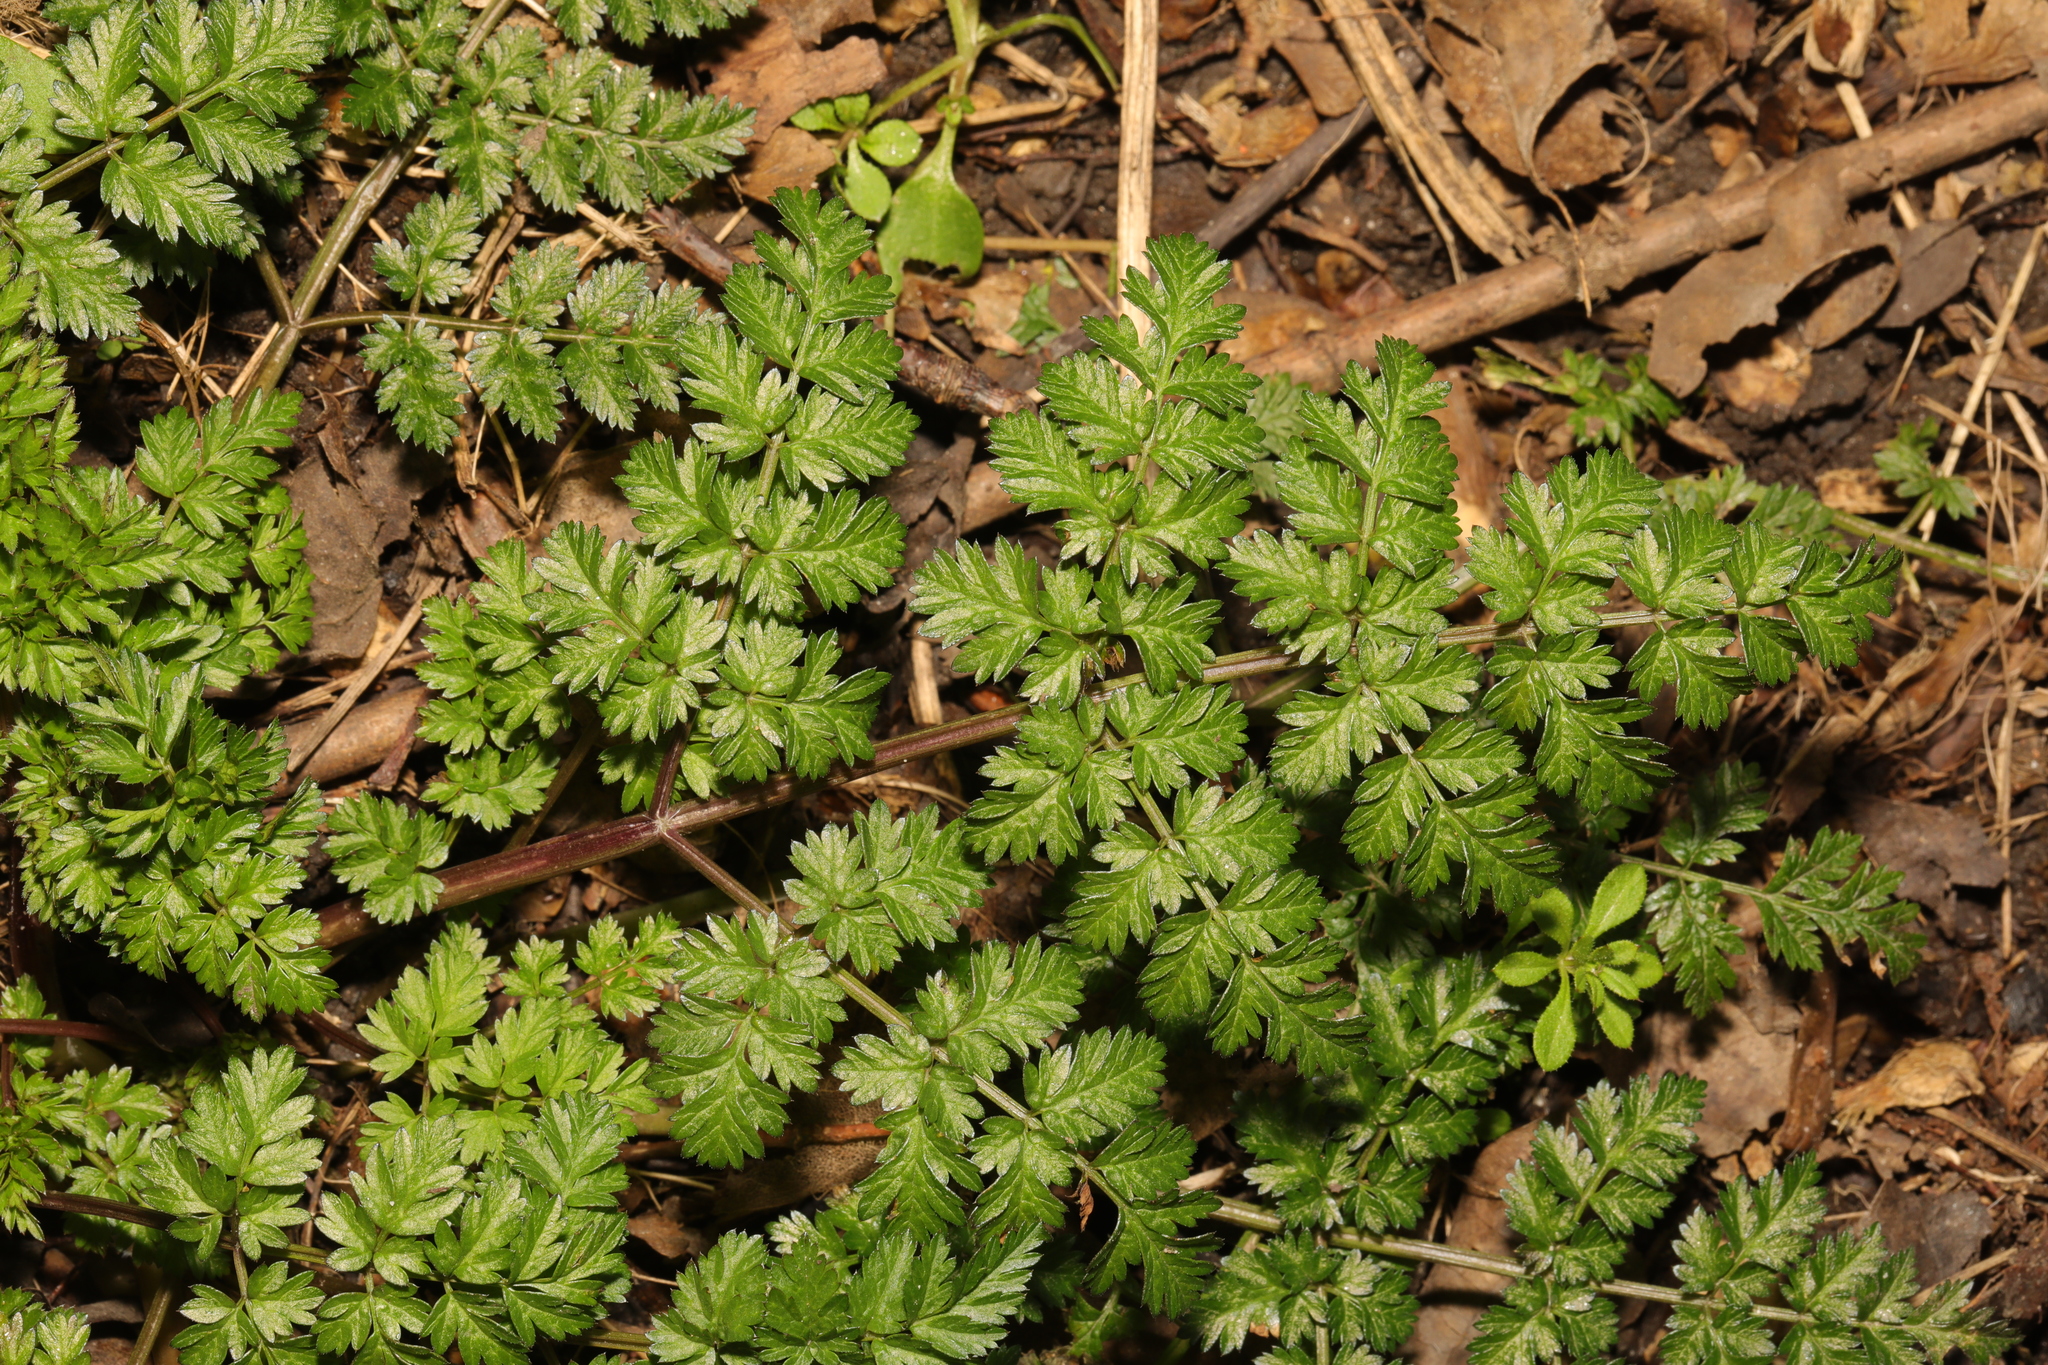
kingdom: Plantae
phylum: Tracheophyta
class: Magnoliopsida
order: Apiales
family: Apiaceae
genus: Anthriscus
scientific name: Anthriscus sylvestris
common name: Cow parsley
